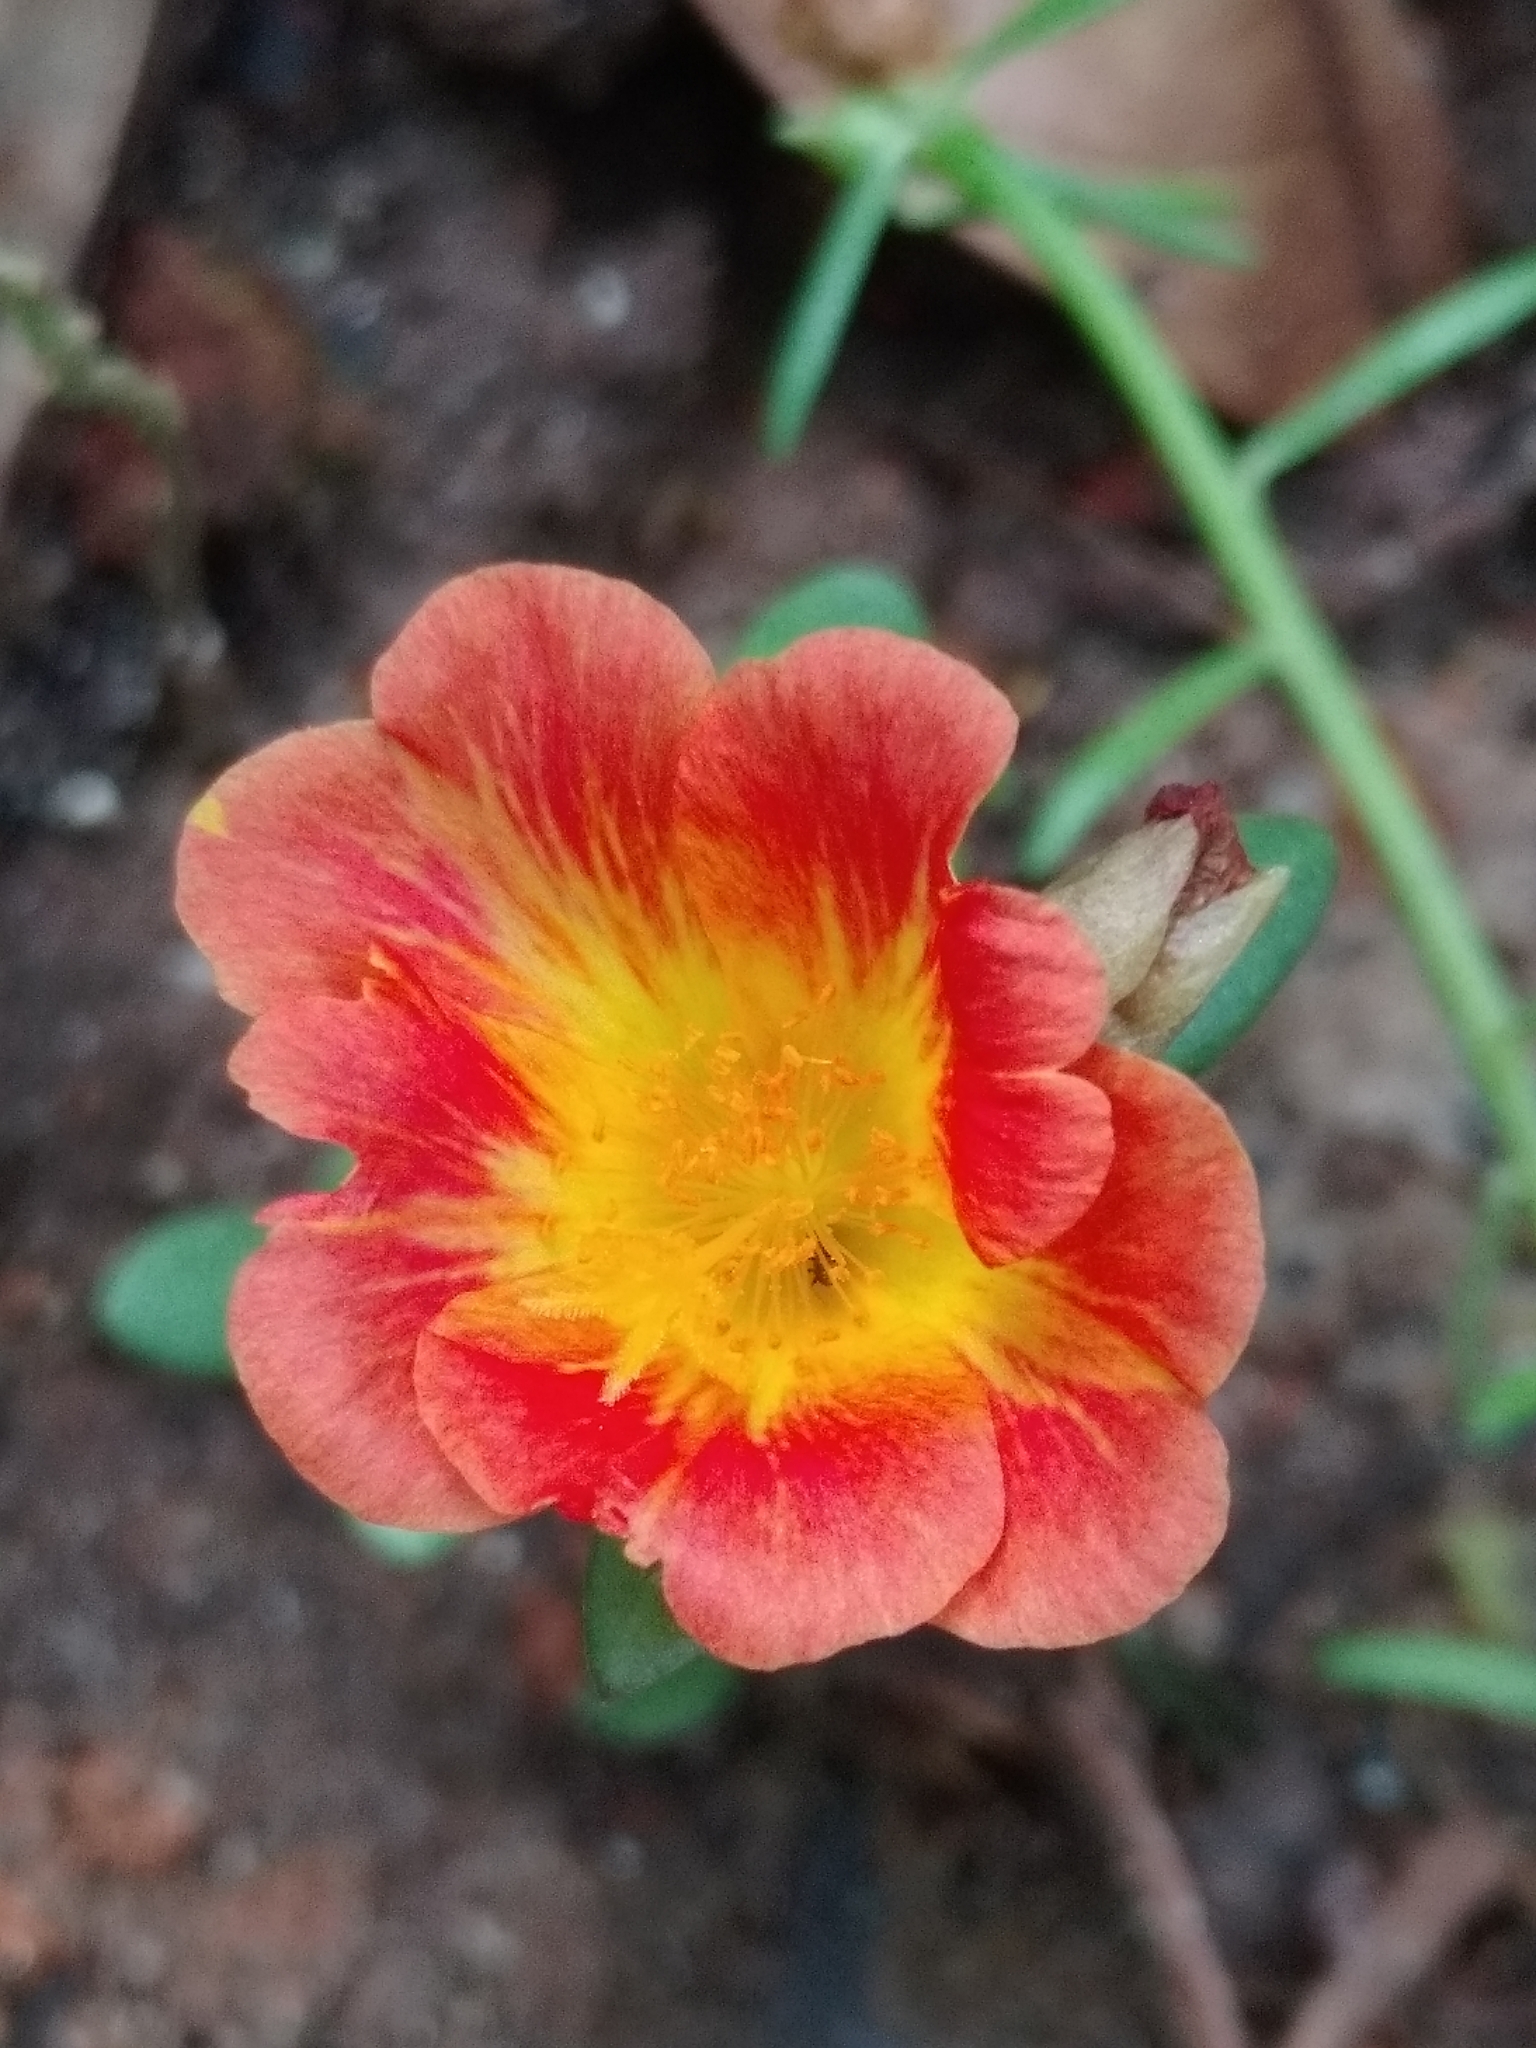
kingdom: Plantae
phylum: Tracheophyta
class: Magnoliopsida
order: Caryophyllales
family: Portulacaceae
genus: Portulaca
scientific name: Portulaca umbraticola
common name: Wingpod purslane
